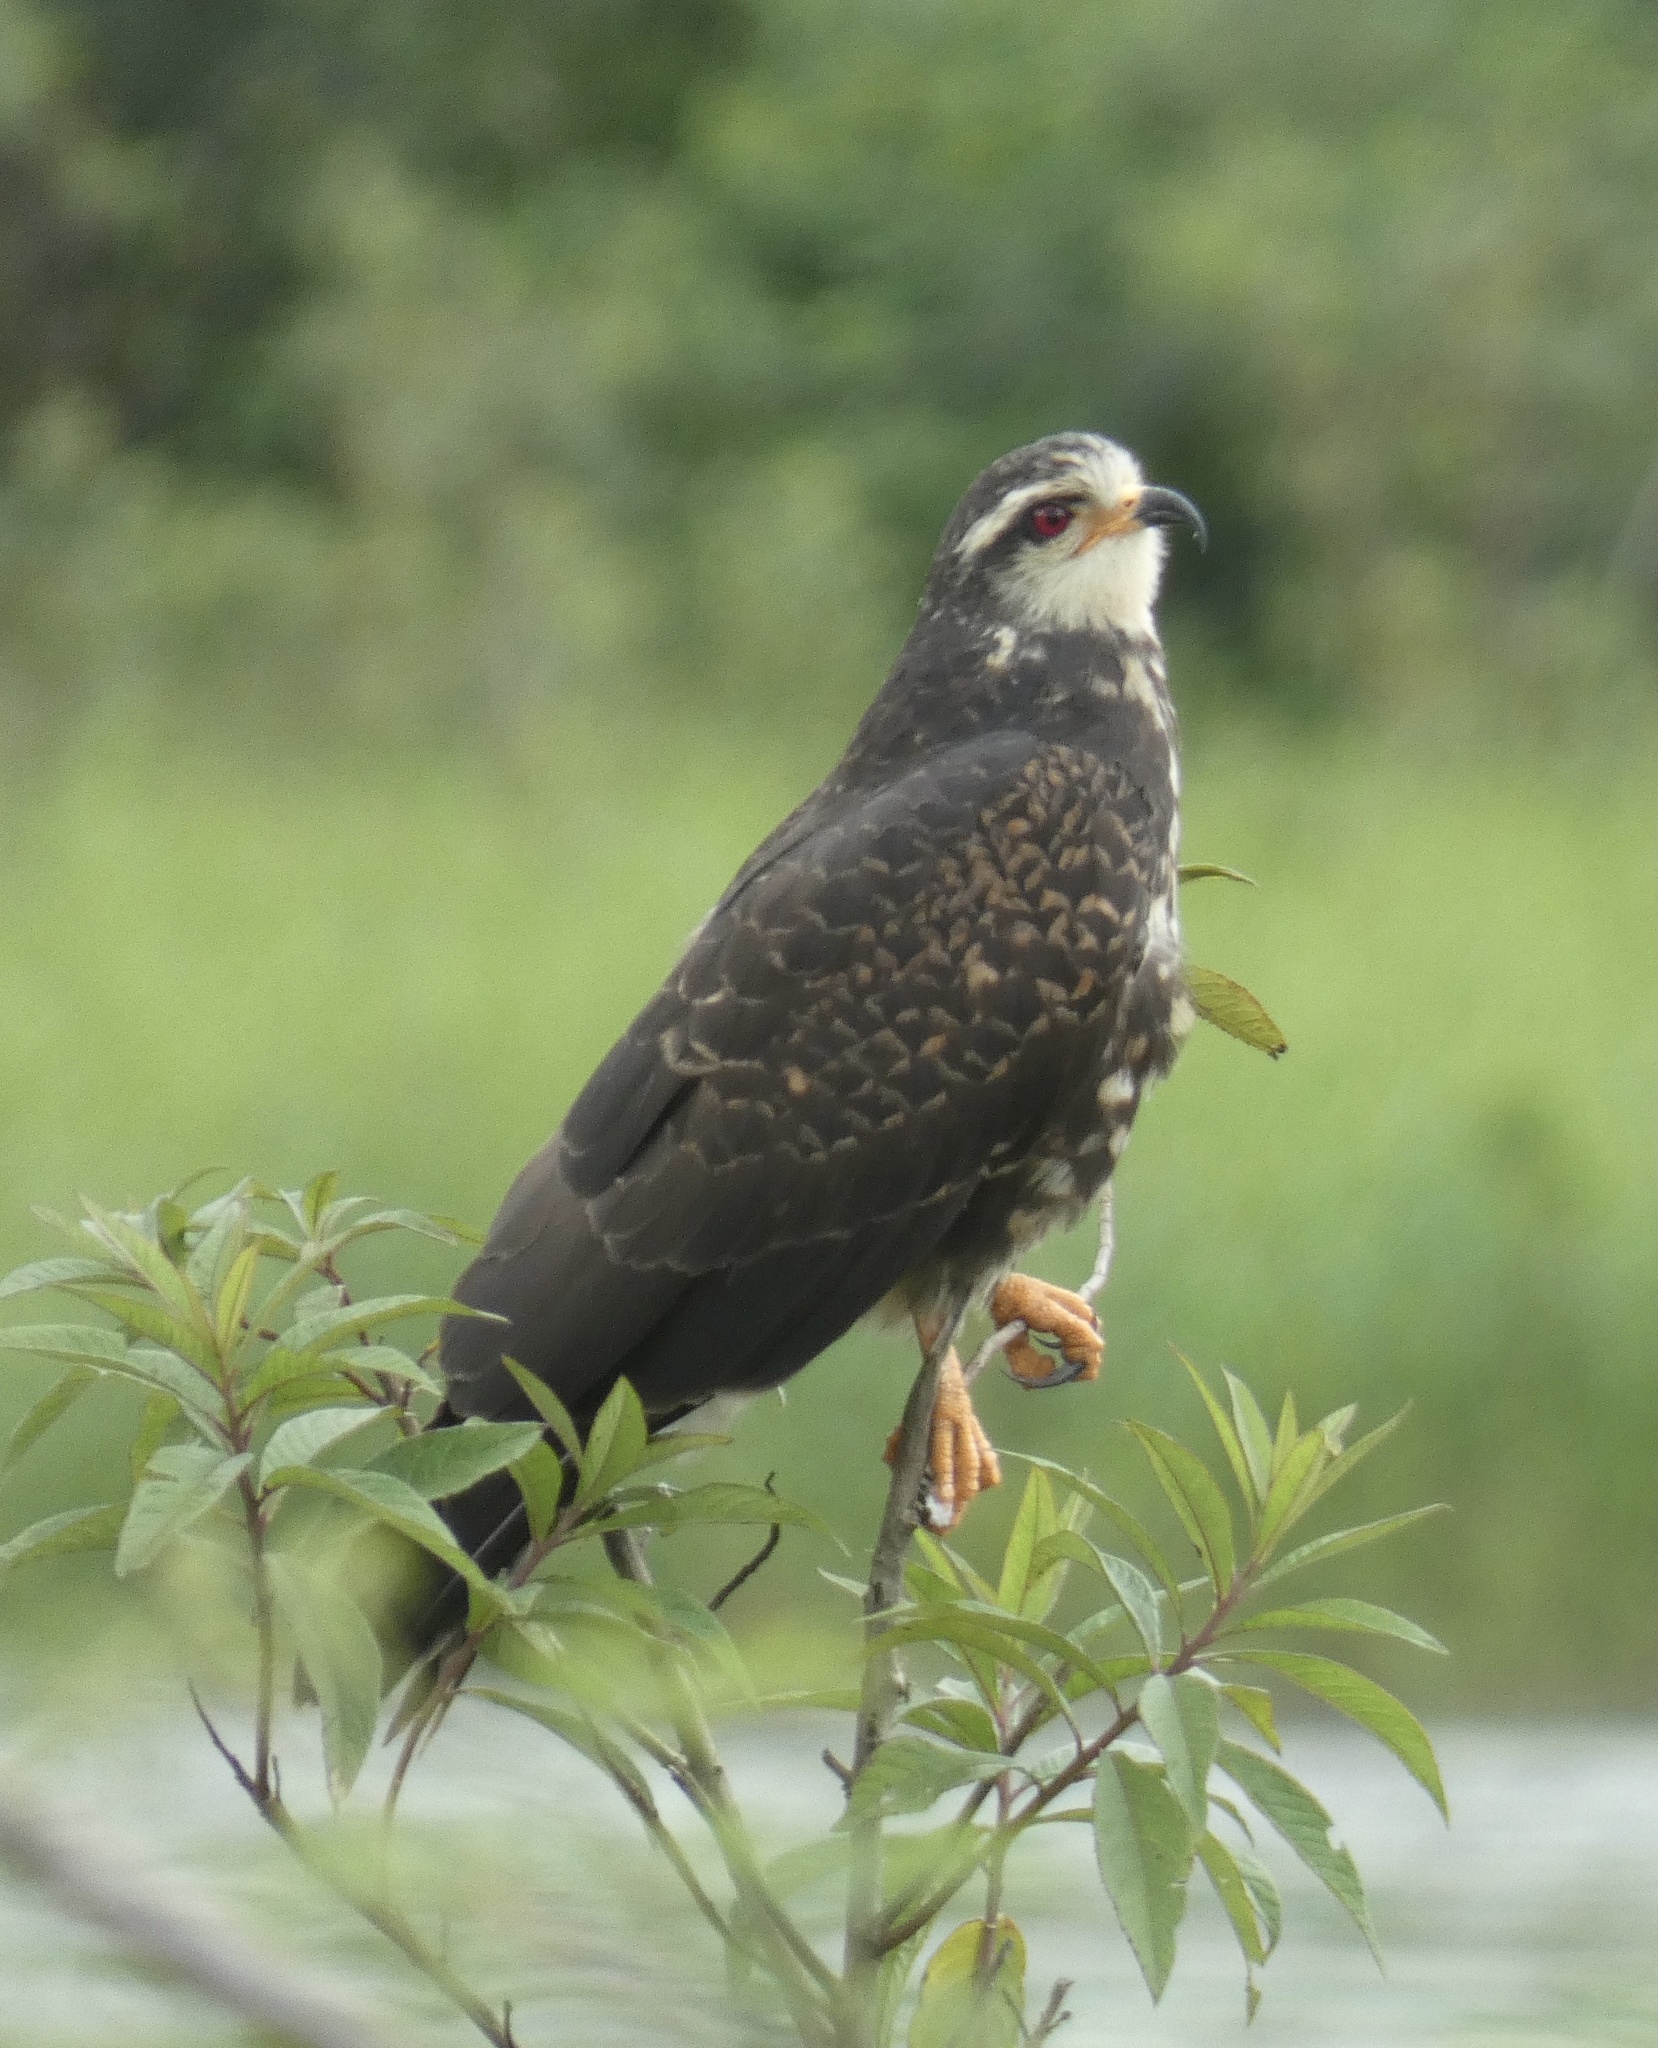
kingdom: Animalia
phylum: Chordata
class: Aves
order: Accipitriformes
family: Accipitridae
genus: Rostrhamus
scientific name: Rostrhamus sociabilis
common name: Snail kite
